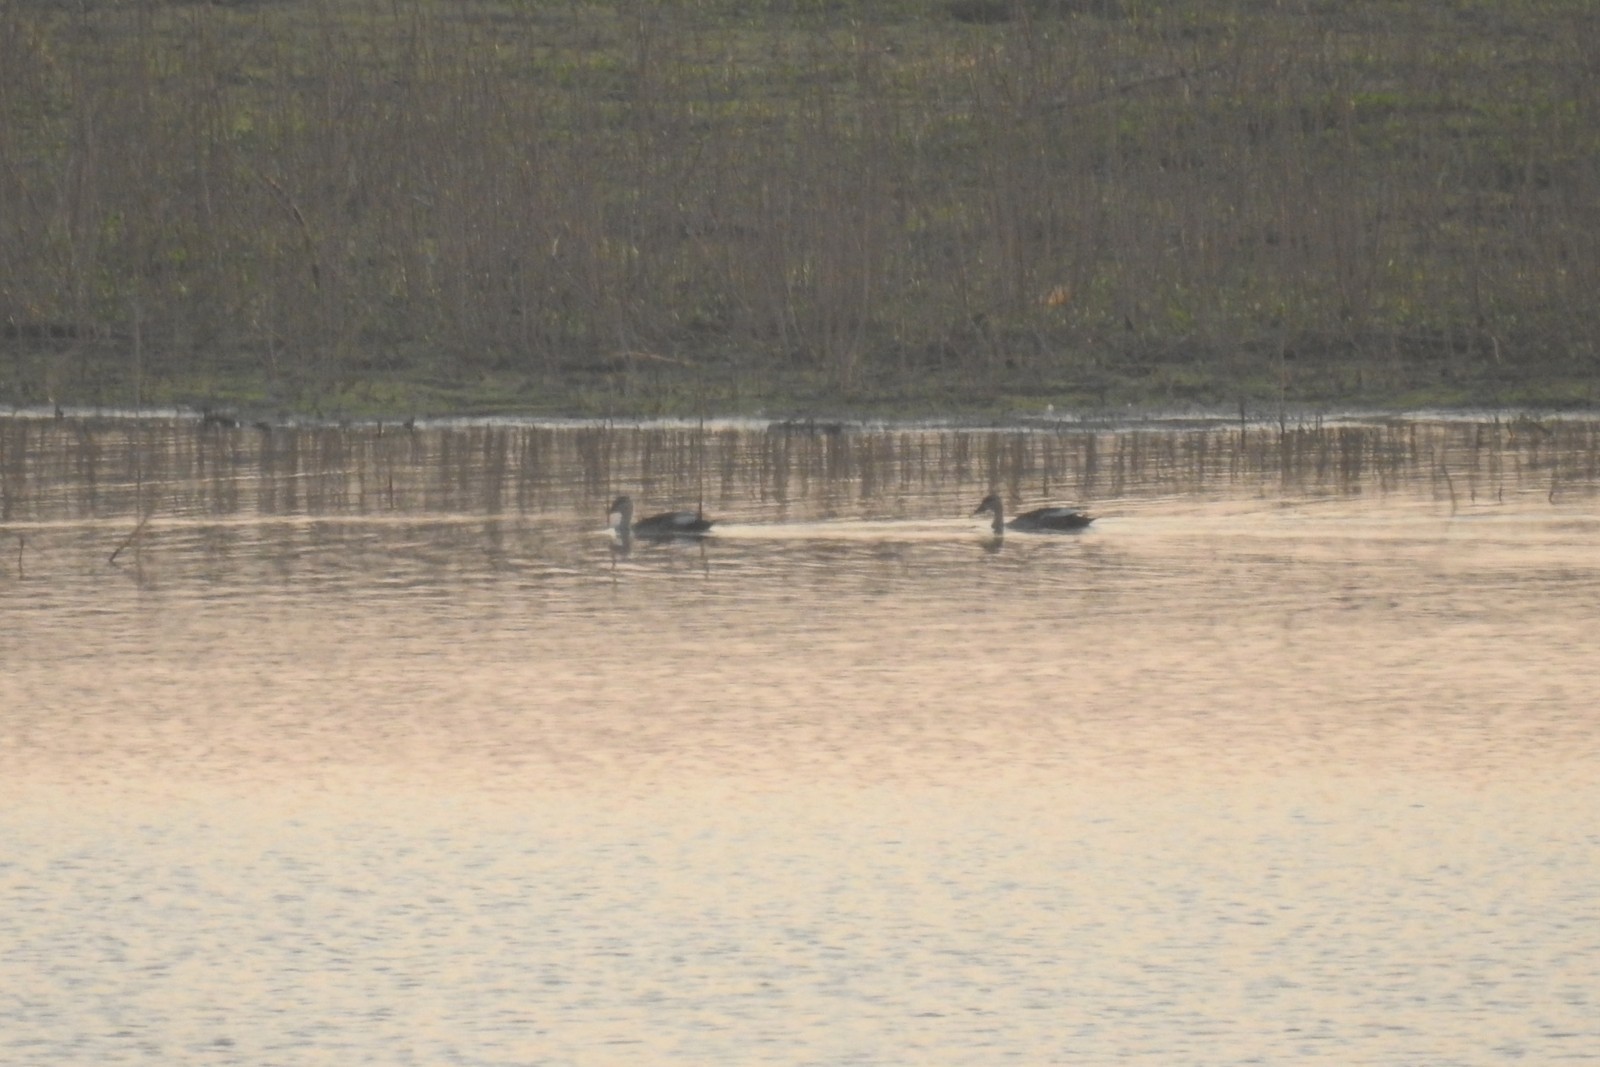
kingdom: Animalia
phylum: Chordata
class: Aves
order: Anseriformes
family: Anatidae
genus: Anas
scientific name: Anas poecilorhyncha
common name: Indian spot-billed duck
